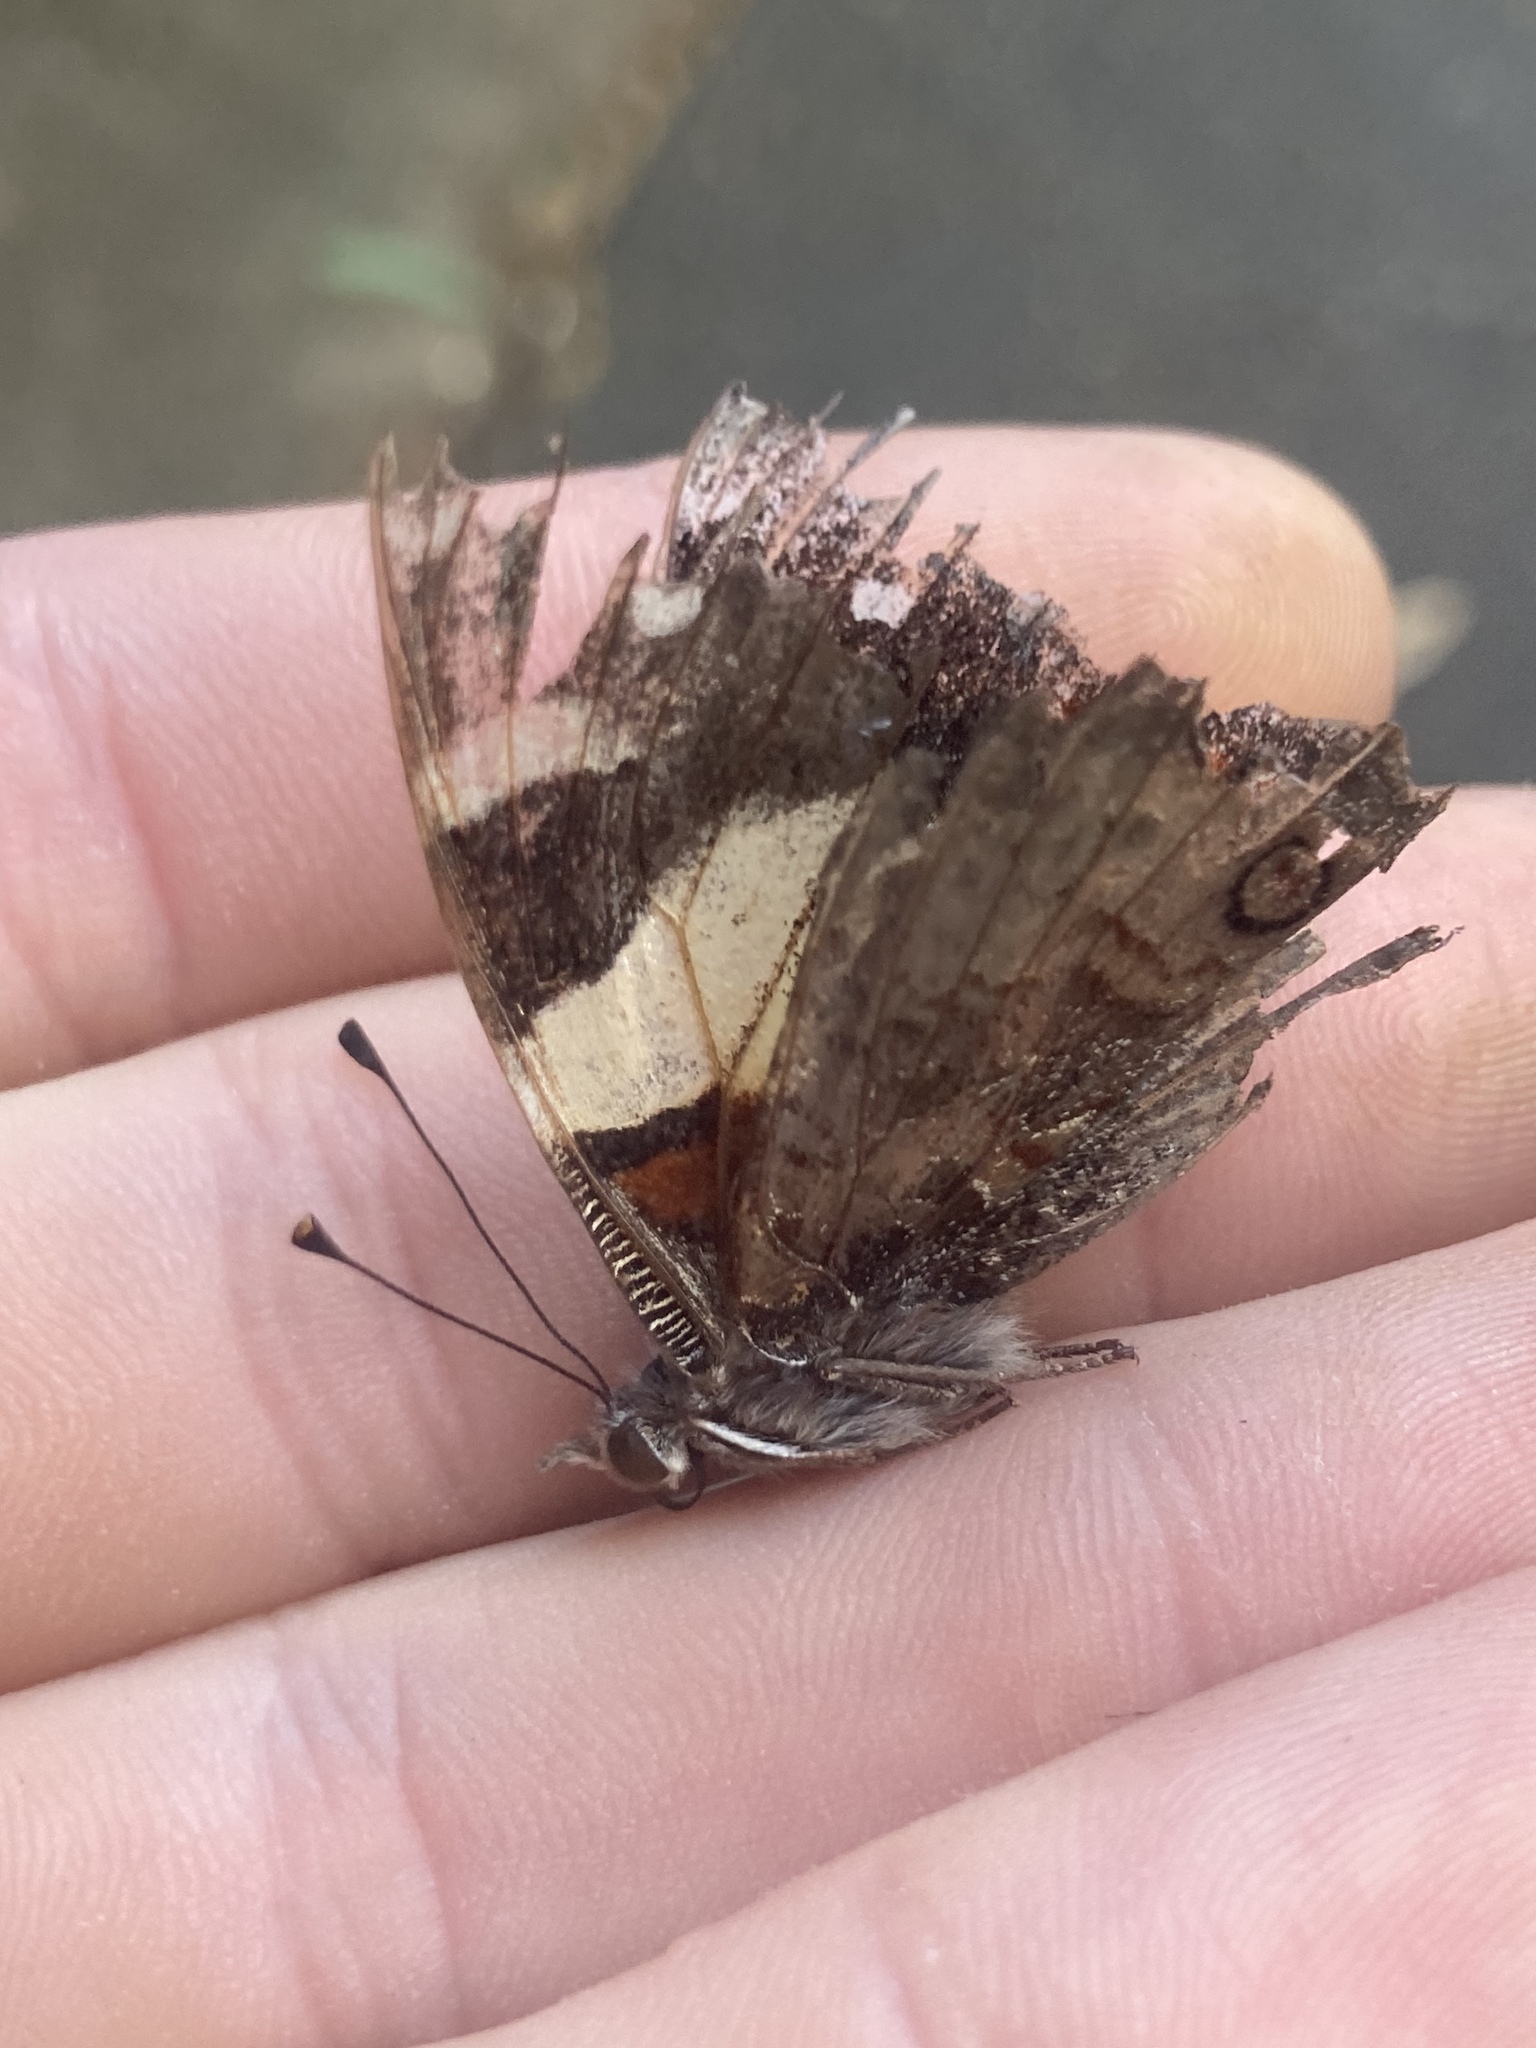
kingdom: Animalia
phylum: Arthropoda
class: Insecta
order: Lepidoptera
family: Nymphalidae
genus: Vanessa
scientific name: Vanessa itea
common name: Yellow admiral
